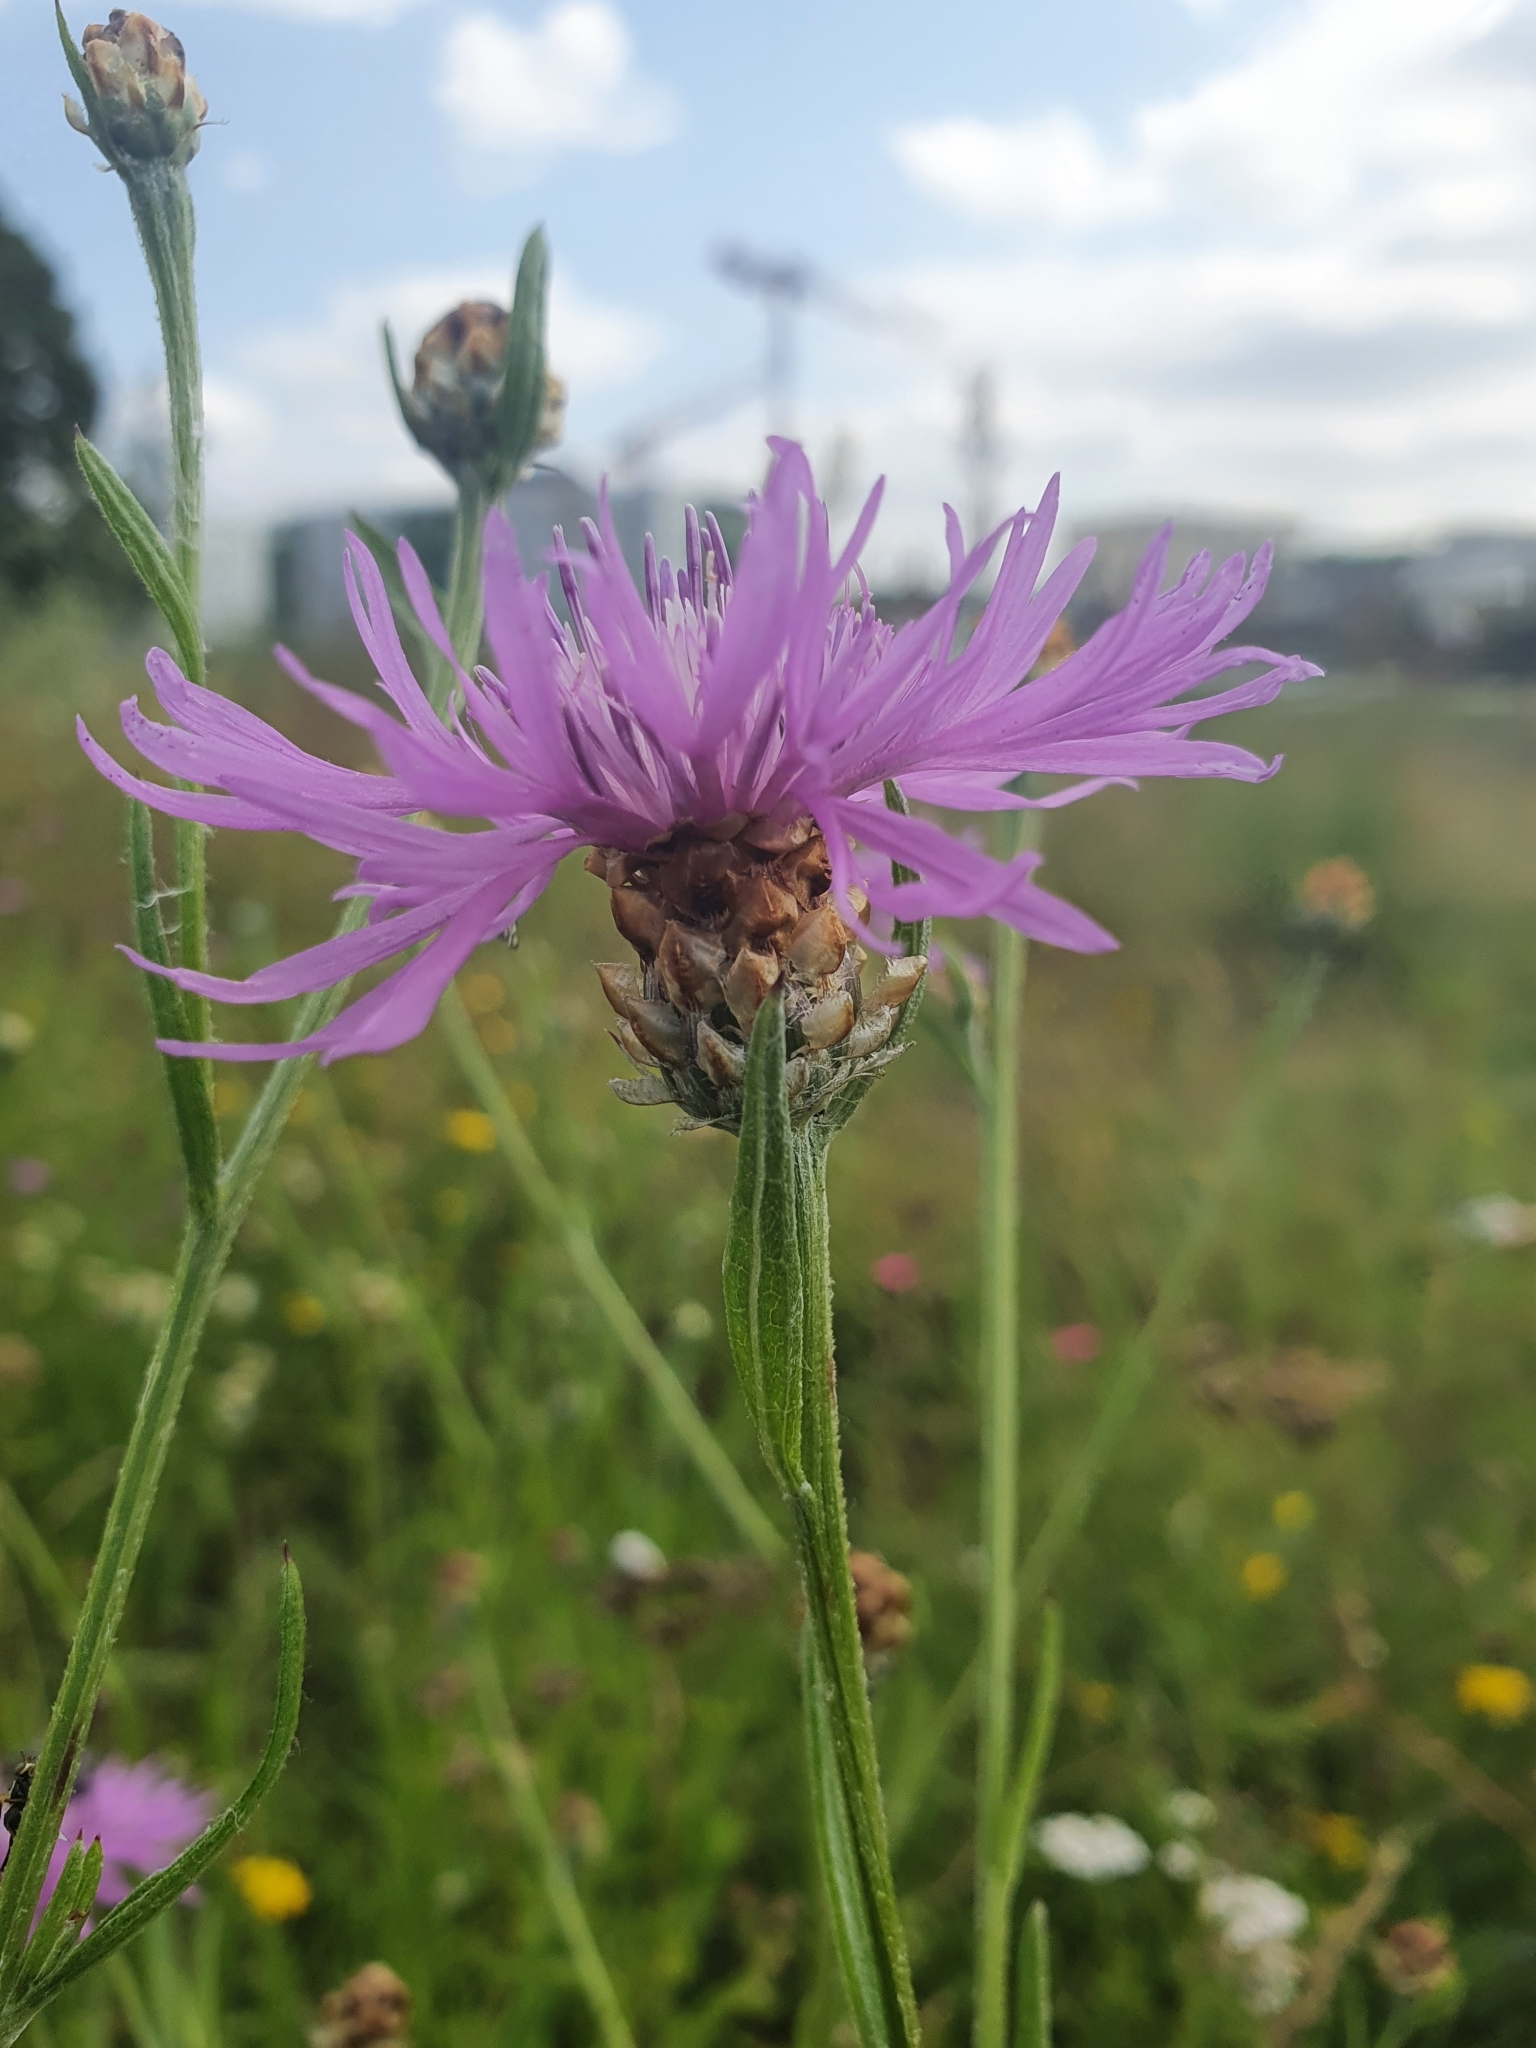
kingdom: Plantae
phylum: Tracheophyta
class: Magnoliopsida
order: Asterales
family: Asteraceae
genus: Centaurea
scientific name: Centaurea jacea
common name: Brown knapweed
